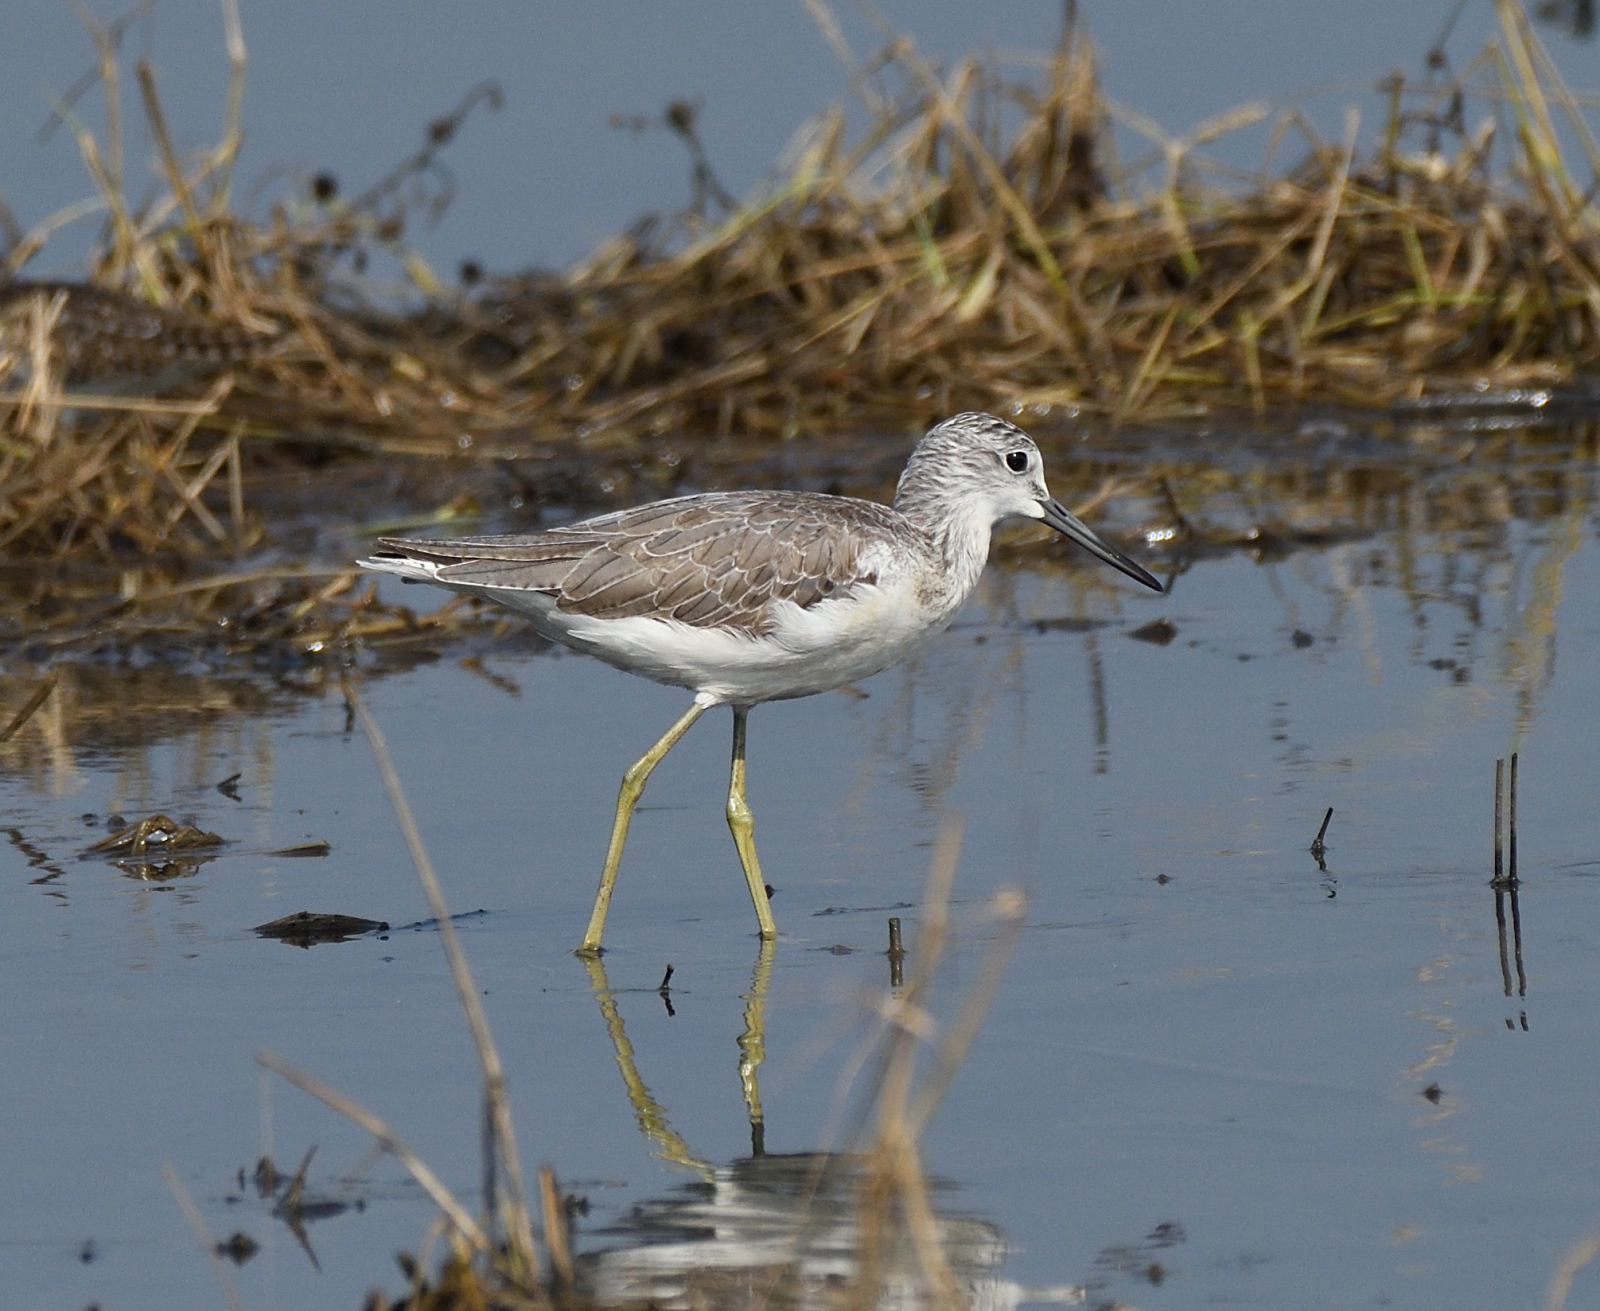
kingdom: Animalia
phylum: Chordata
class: Aves
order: Charadriiformes
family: Scolopacidae
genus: Tringa
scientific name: Tringa nebularia
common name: Common greenshank
